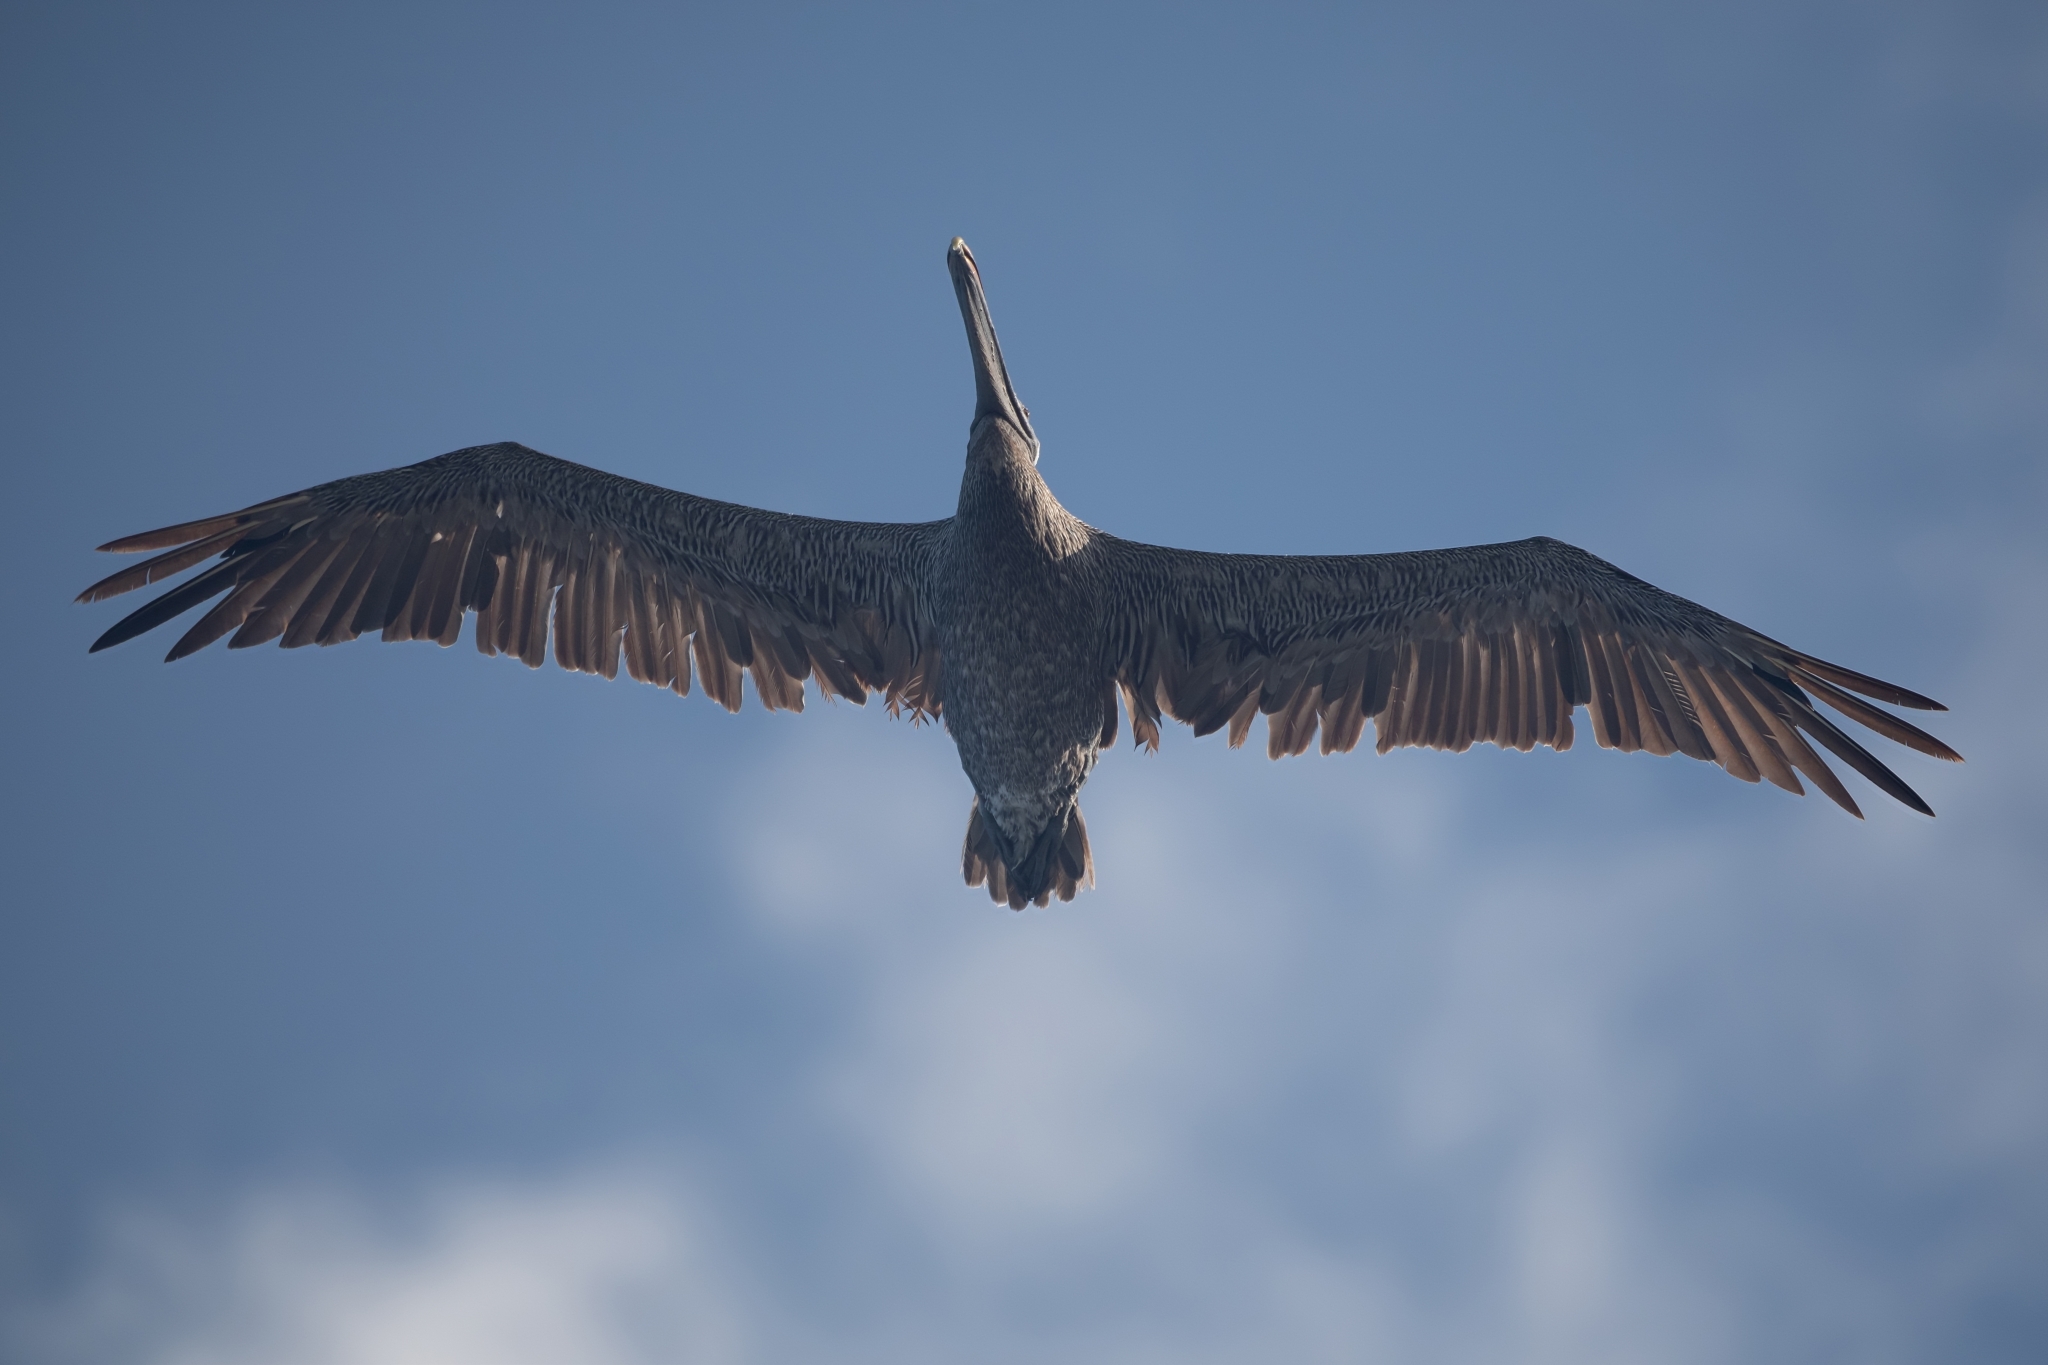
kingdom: Animalia
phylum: Chordata
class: Aves
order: Pelecaniformes
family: Pelecanidae
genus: Pelecanus
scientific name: Pelecanus occidentalis
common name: Brown pelican
